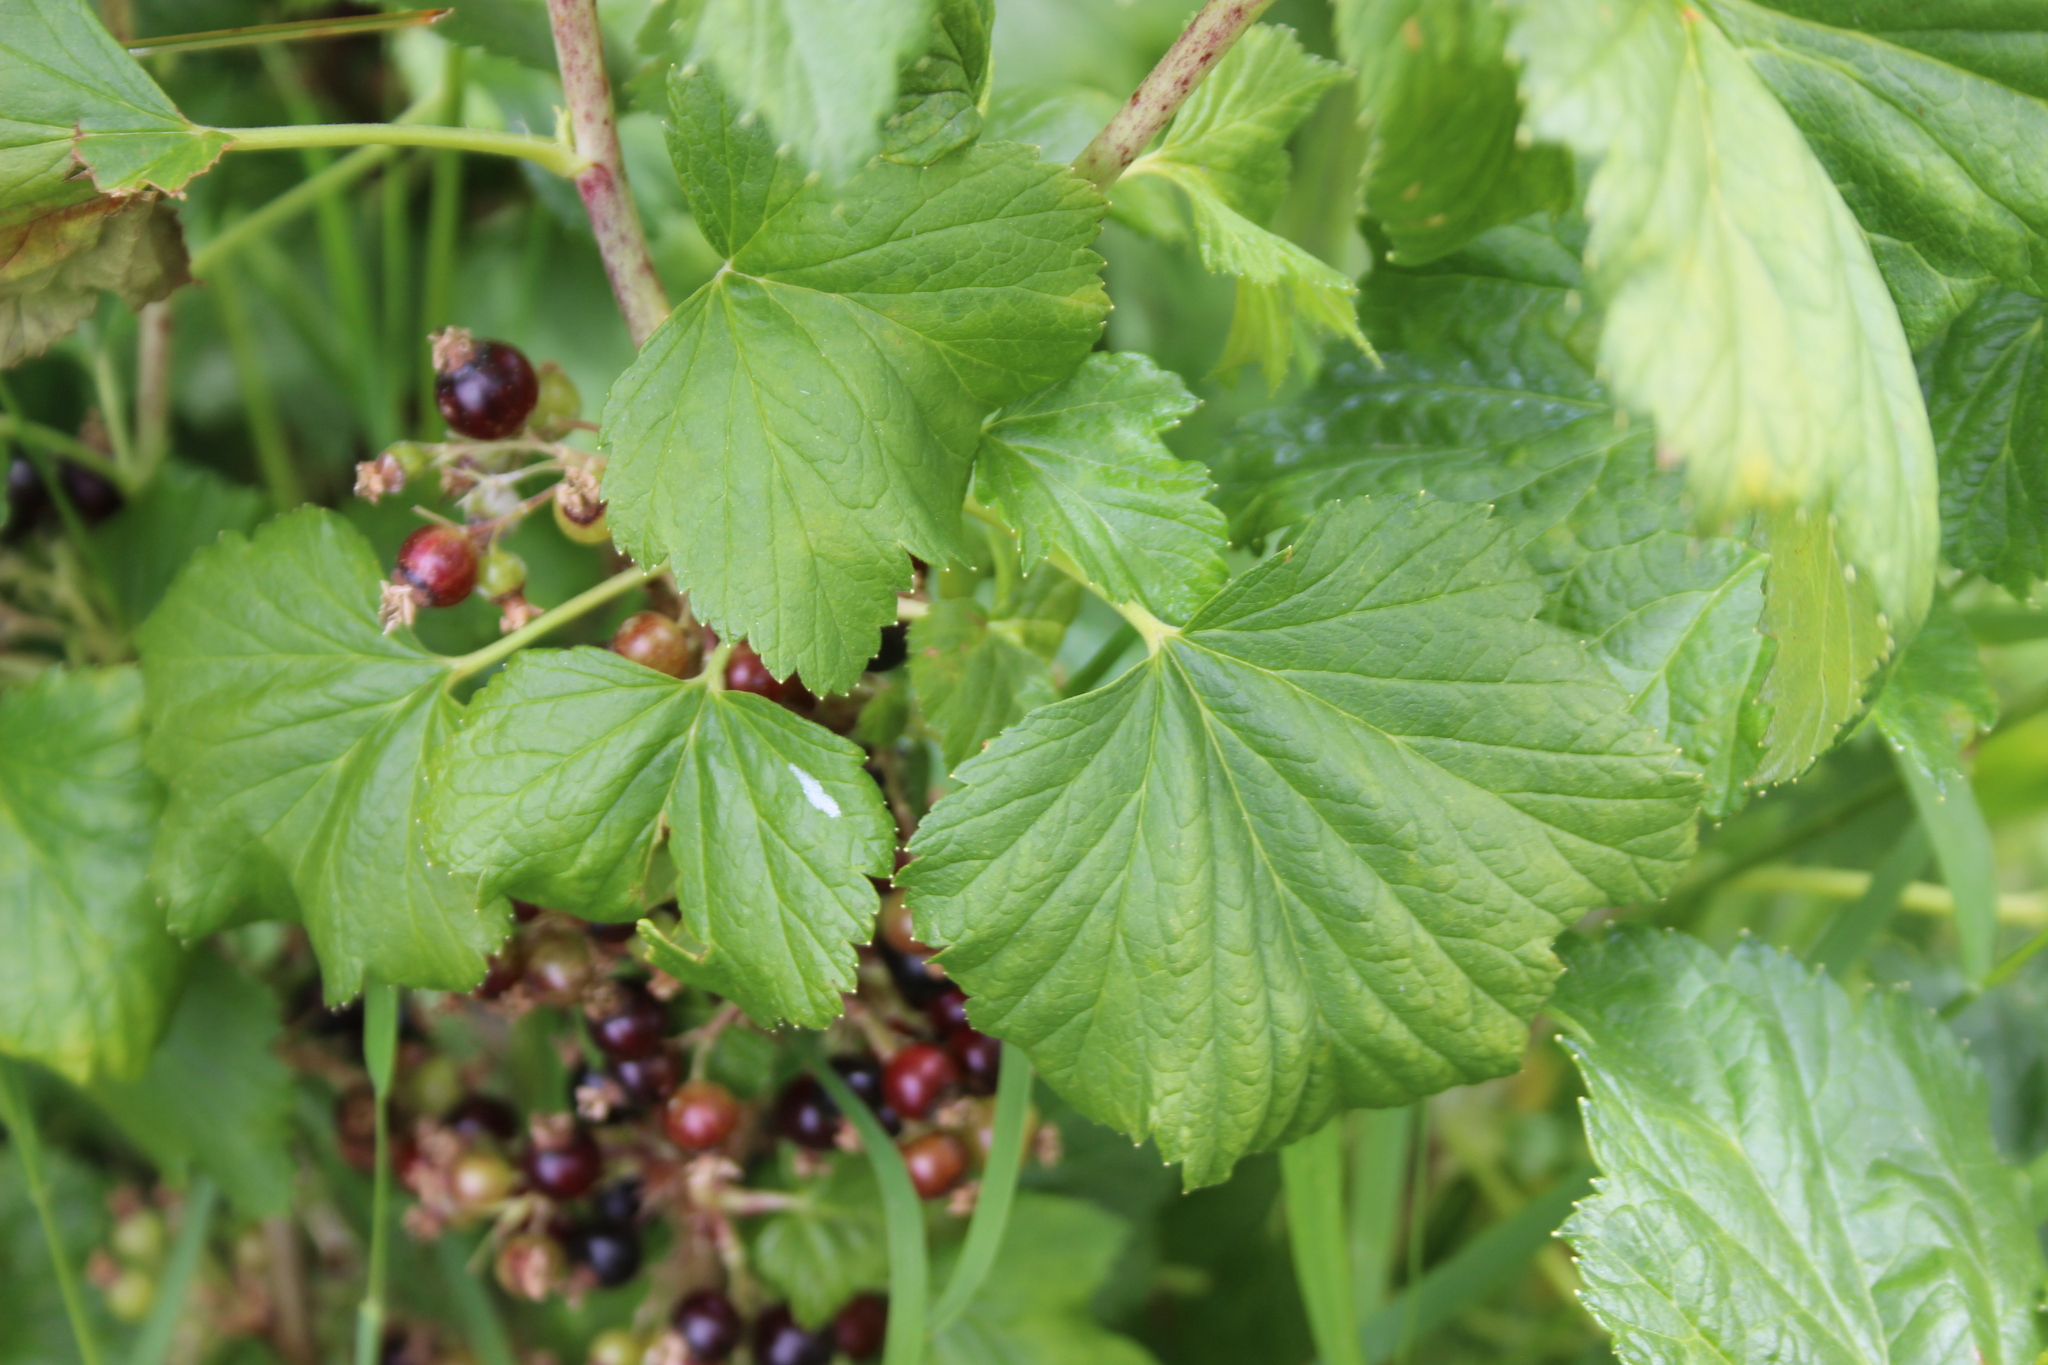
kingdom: Plantae
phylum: Tracheophyta
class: Magnoliopsida
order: Saxifragales
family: Grossulariaceae
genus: Ribes
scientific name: Ribes nigrum
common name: Black currant
